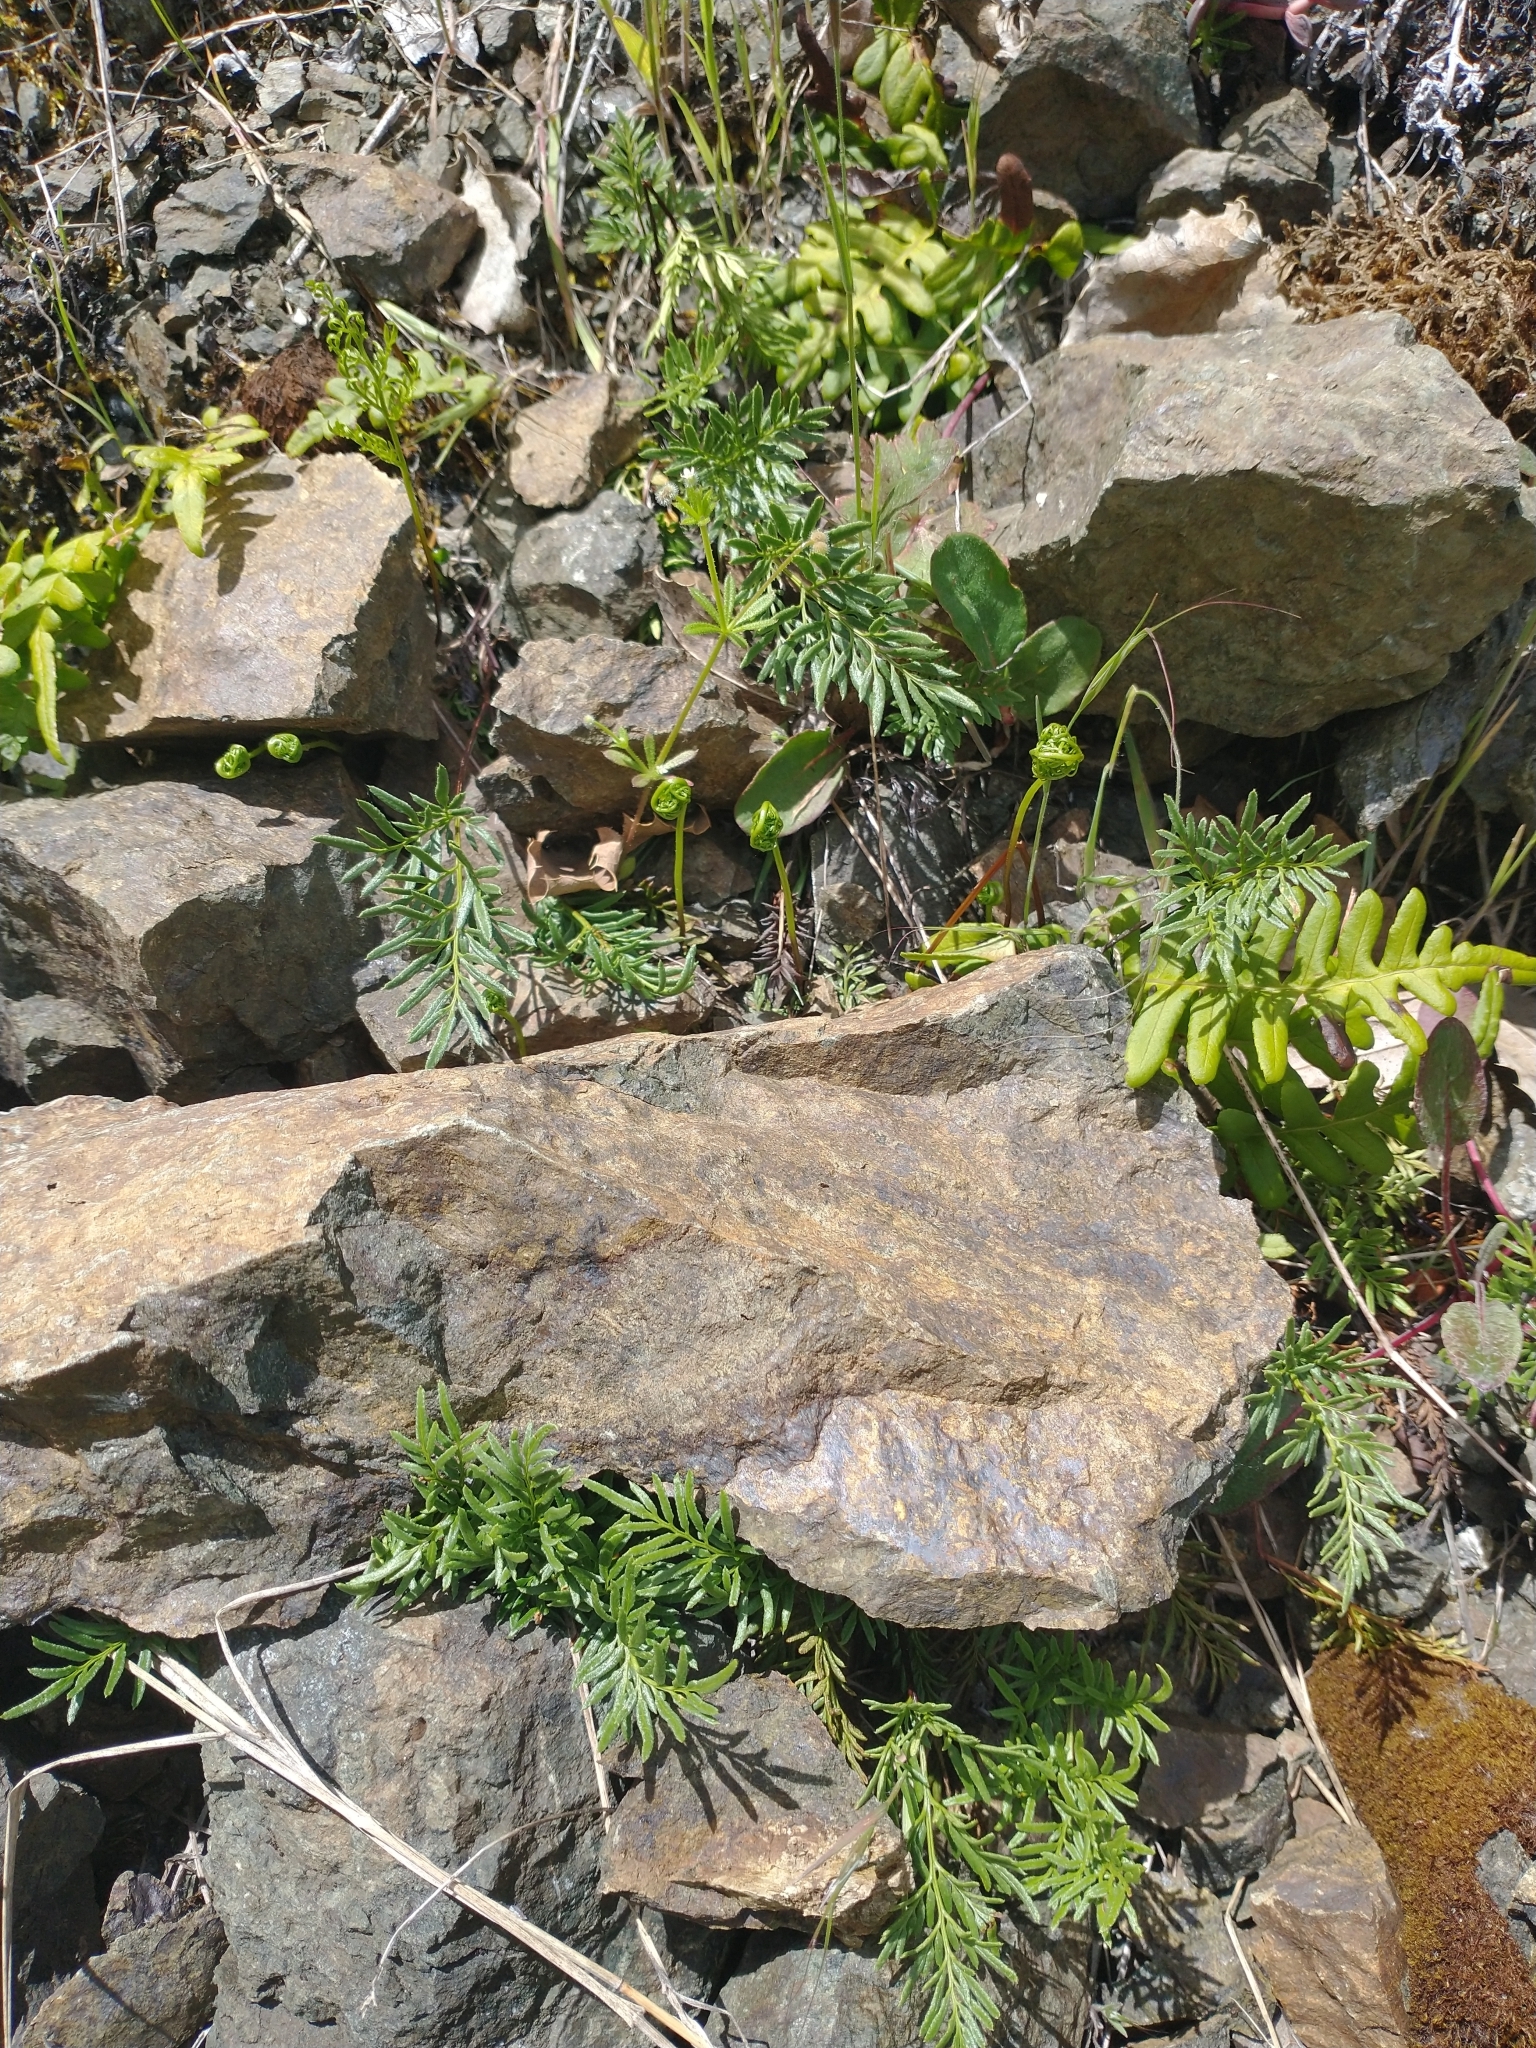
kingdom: Plantae
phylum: Tracheophyta
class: Polypodiopsida
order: Polypodiales
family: Pteridaceae
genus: Aspidotis
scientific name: Aspidotis densa
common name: Indian's dream
